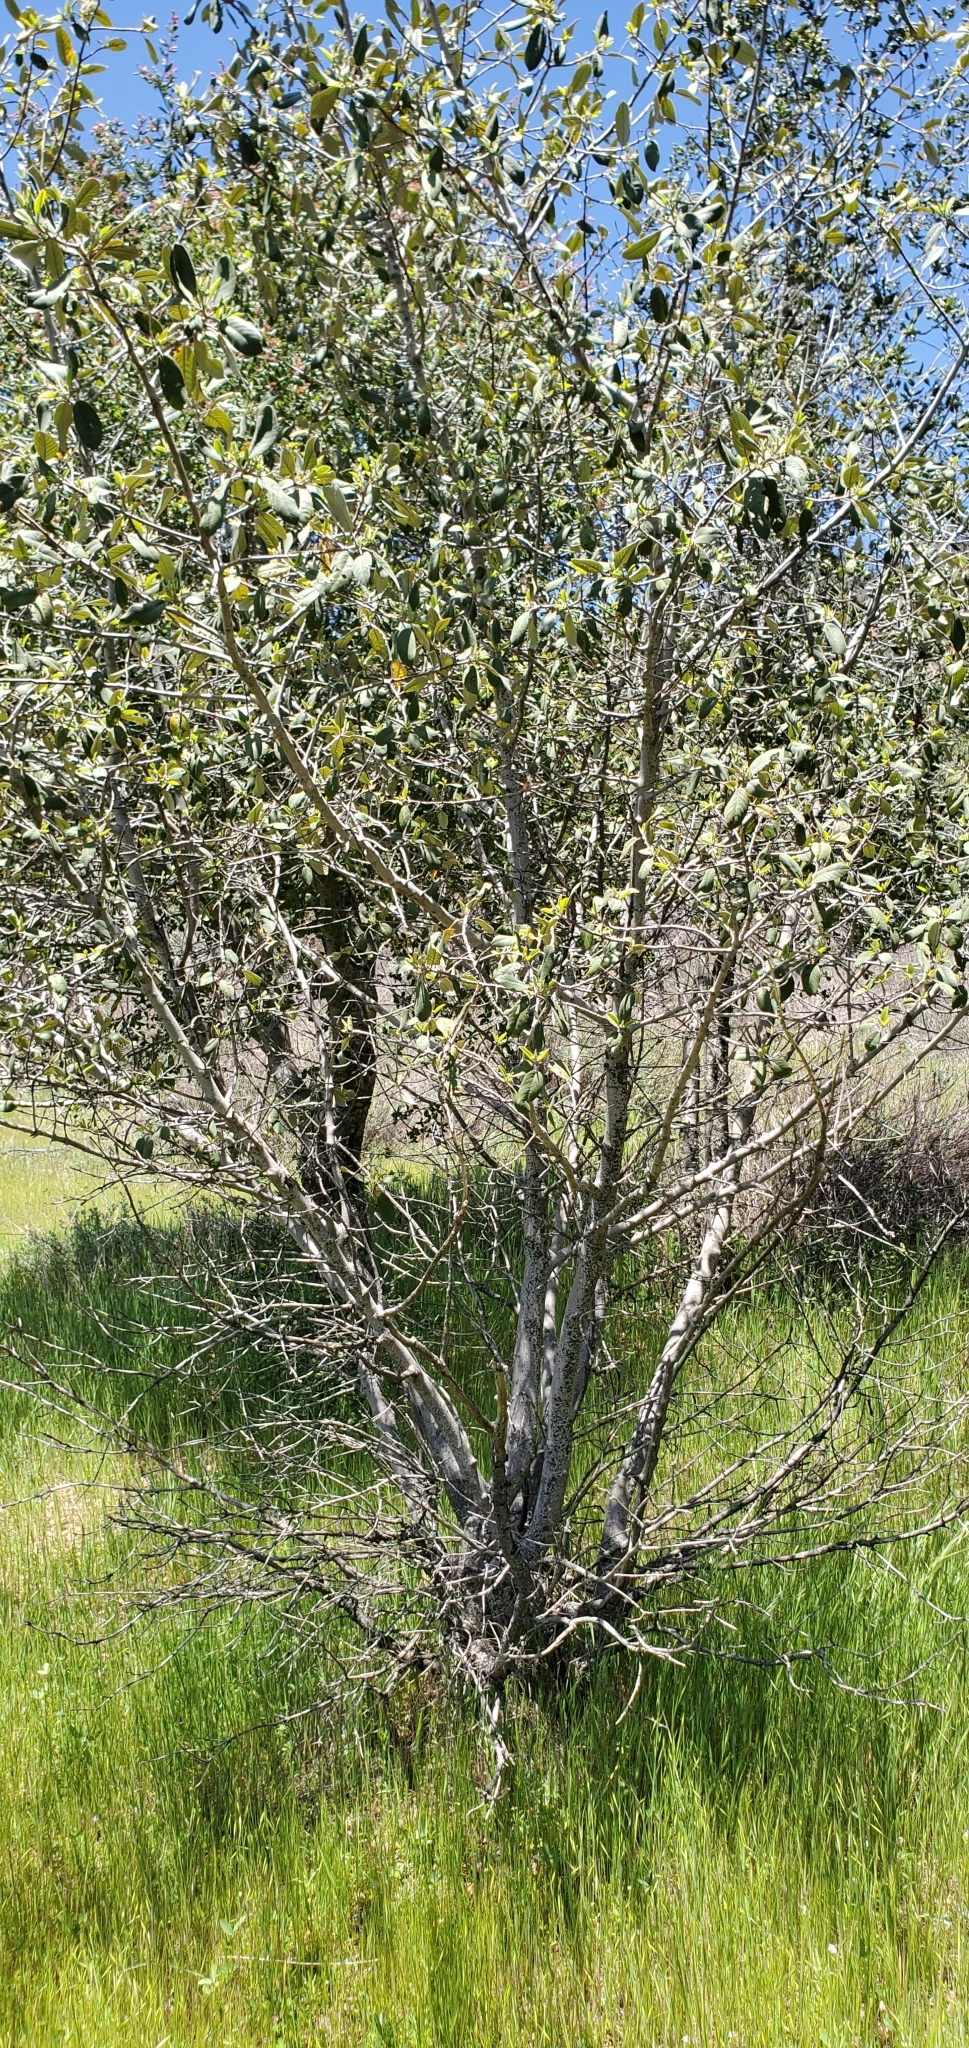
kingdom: Plantae
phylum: Tracheophyta
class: Magnoliopsida
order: Rosales
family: Rhamnaceae
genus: Frangula
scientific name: Frangula californica
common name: California buckthorn
